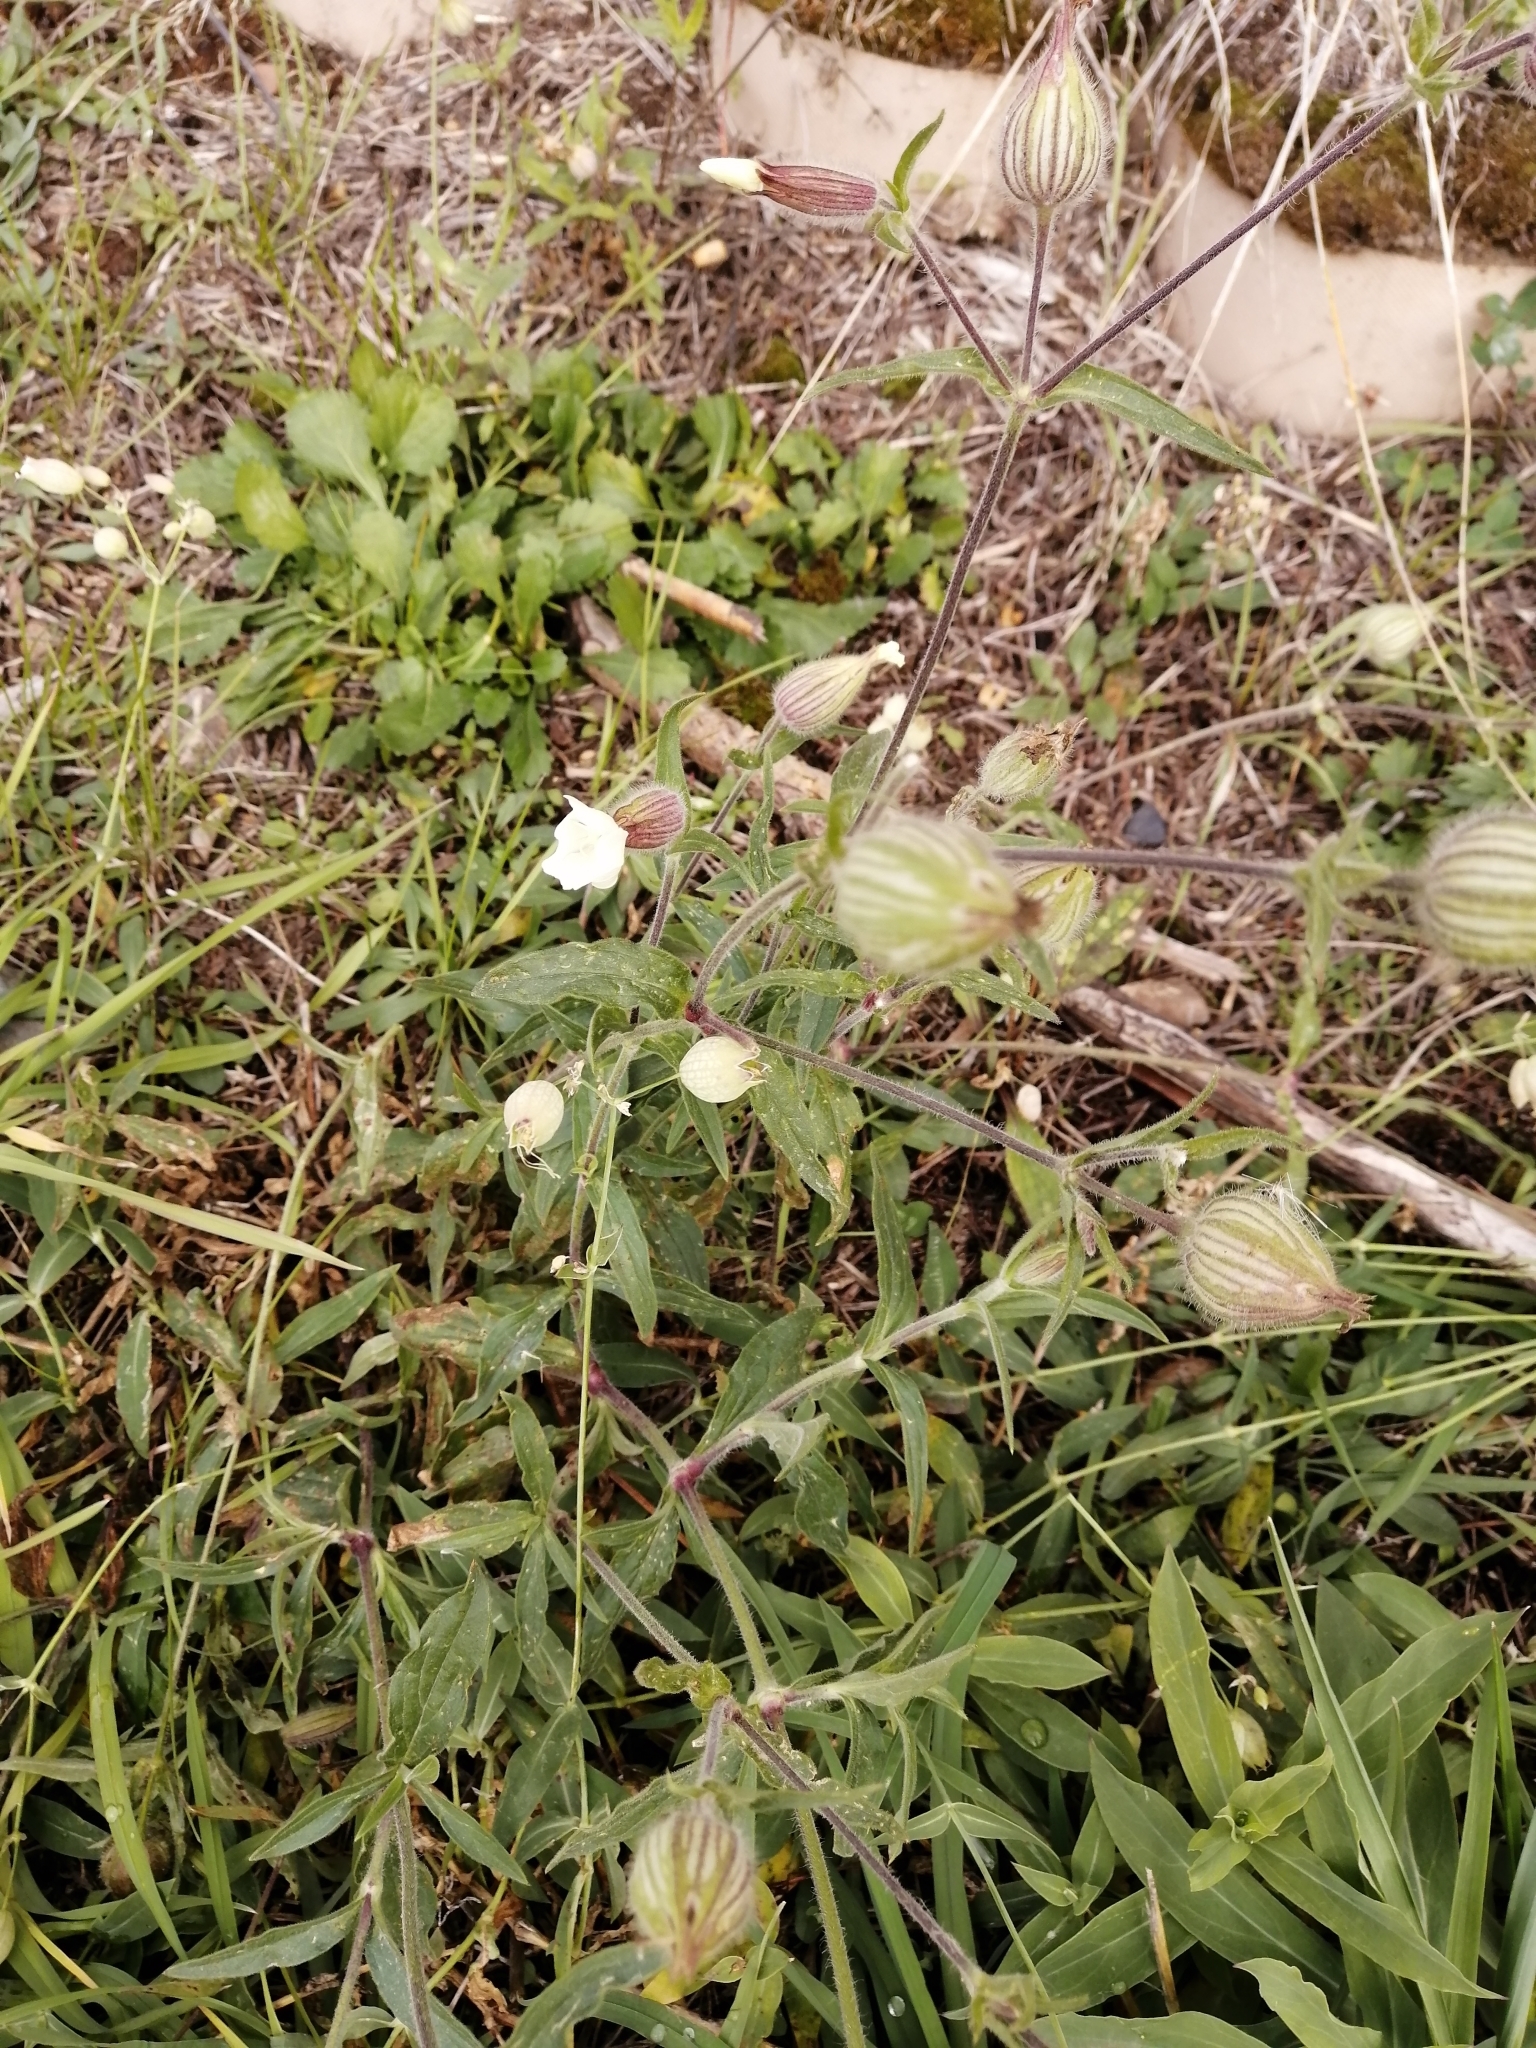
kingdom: Plantae
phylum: Tracheophyta
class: Magnoliopsida
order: Caryophyllales
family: Caryophyllaceae
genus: Silene
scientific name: Silene latifolia
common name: White campion
